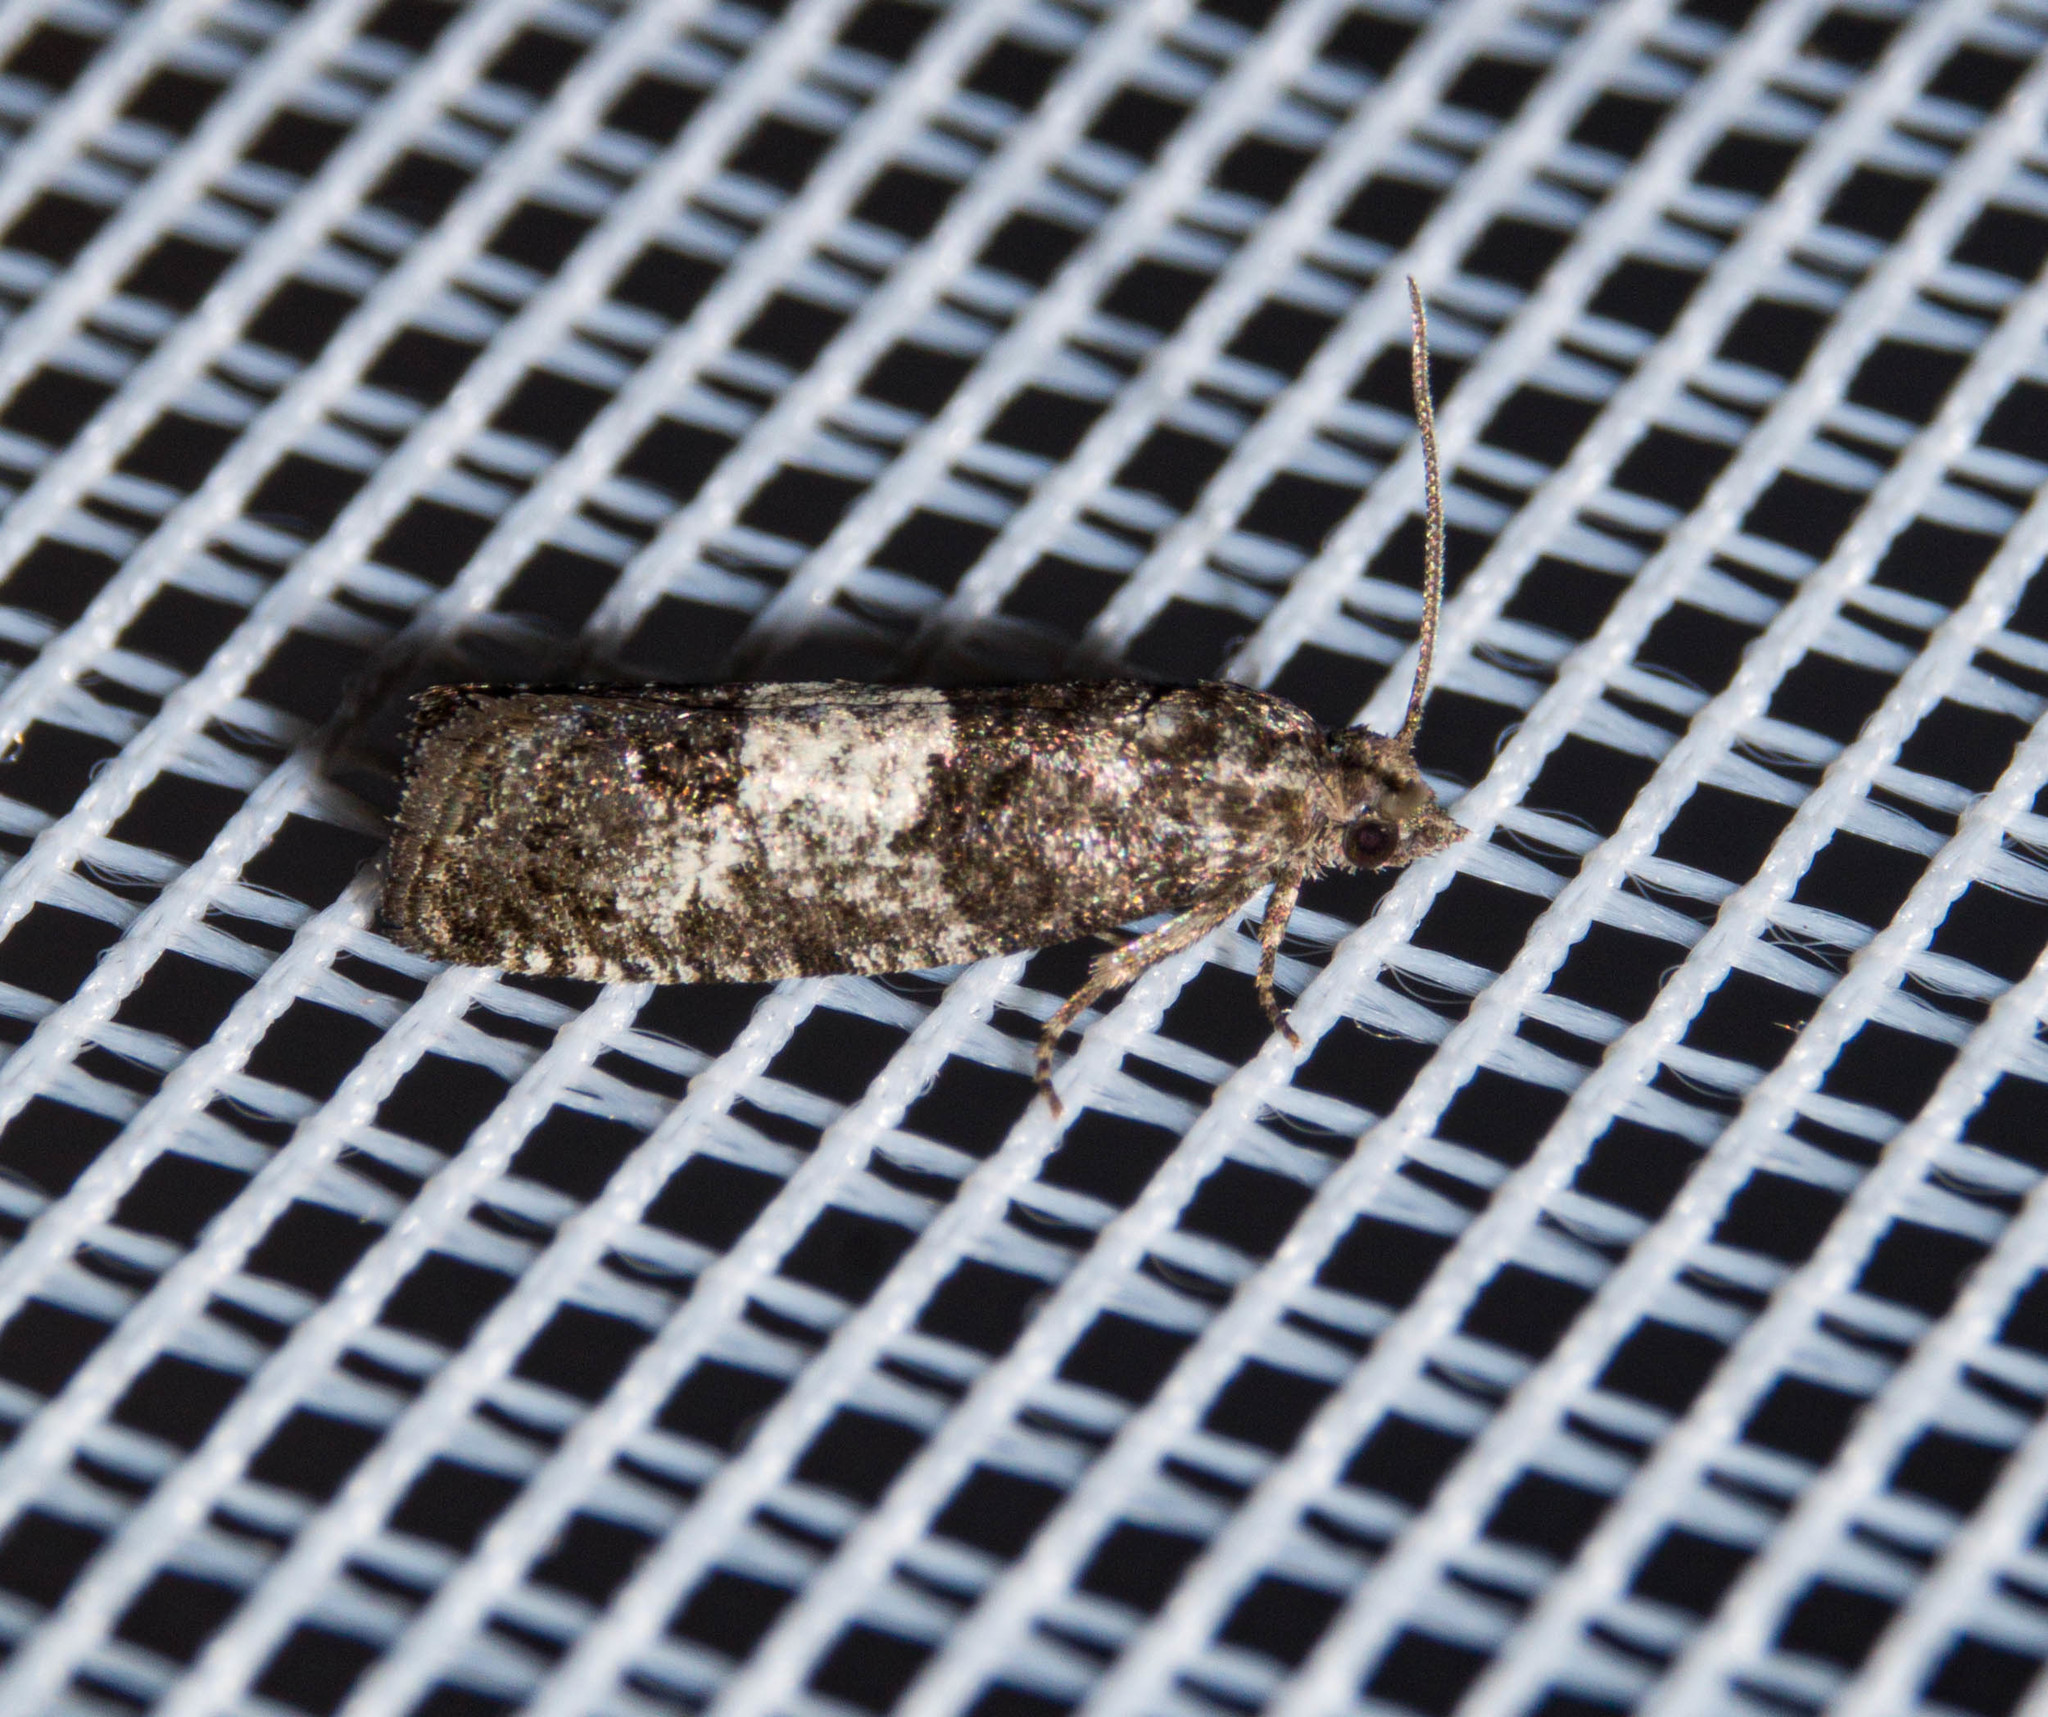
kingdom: Animalia
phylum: Arthropoda
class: Insecta
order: Lepidoptera
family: Tortricidae
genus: Spilonota
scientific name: Spilonota laricana
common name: Larch shoot tortricid moth
